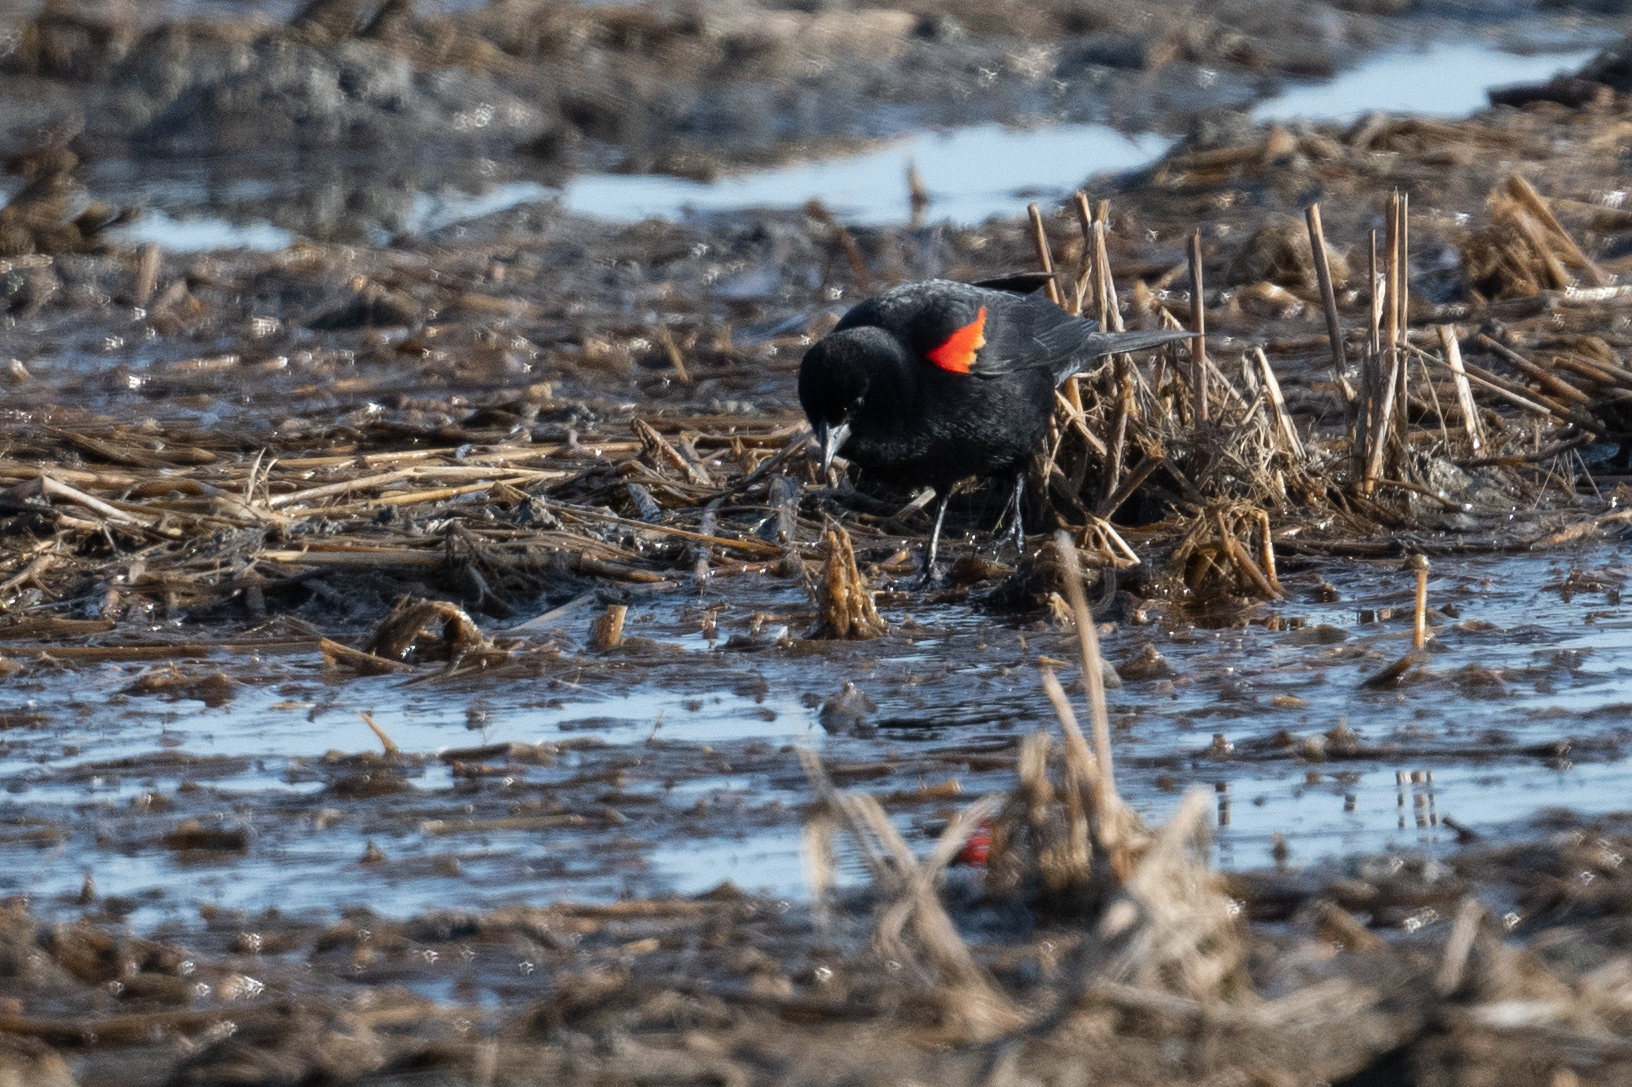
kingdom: Animalia
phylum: Chordata
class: Aves
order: Passeriformes
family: Icteridae
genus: Agelaius
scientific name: Agelaius phoeniceus
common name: Red-winged blackbird
